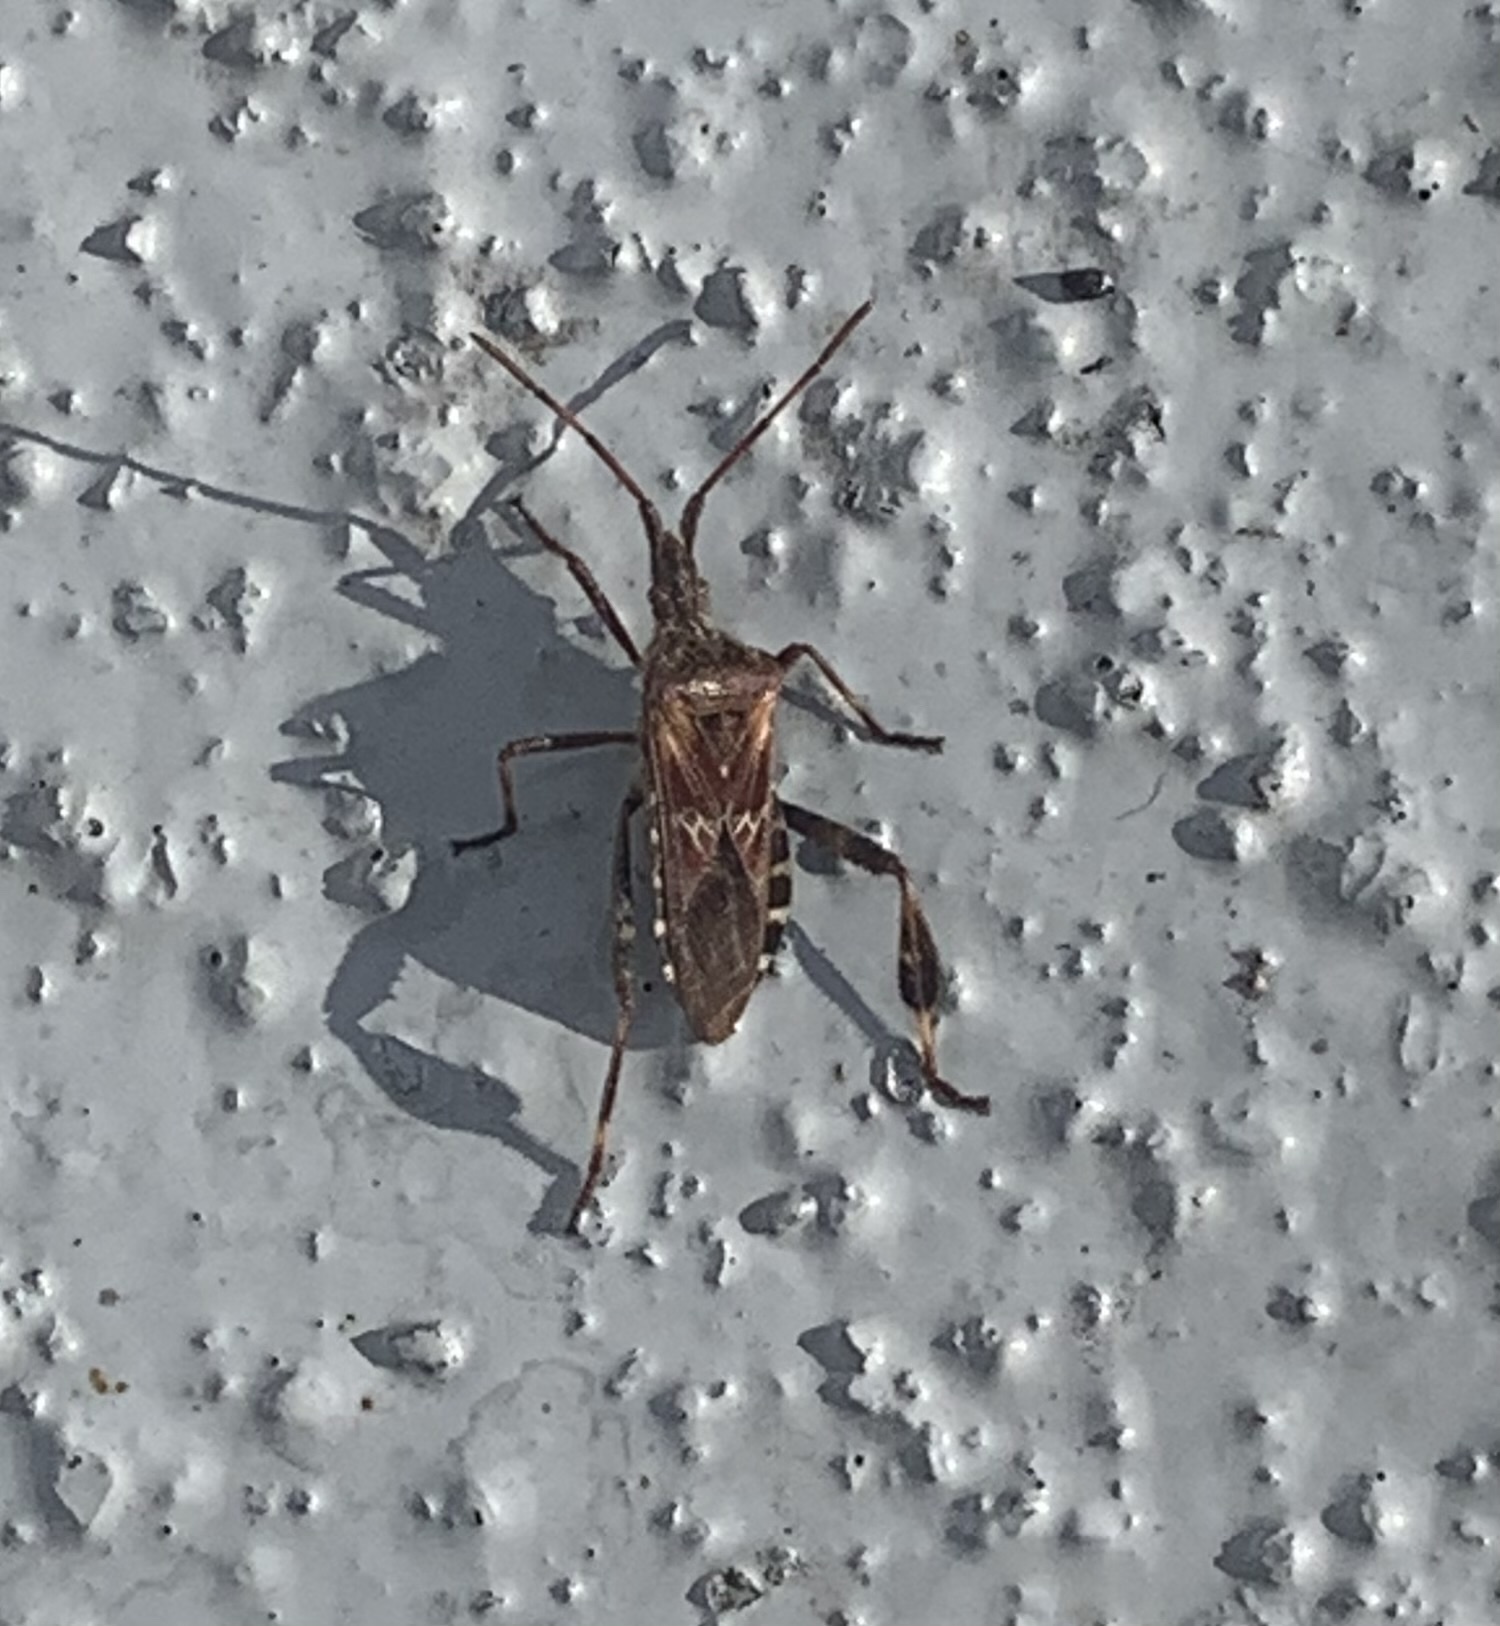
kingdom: Animalia
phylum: Arthropoda
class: Insecta
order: Hemiptera
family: Coreidae
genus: Leptoglossus
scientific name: Leptoglossus occidentalis
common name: Western conifer-seed bug
